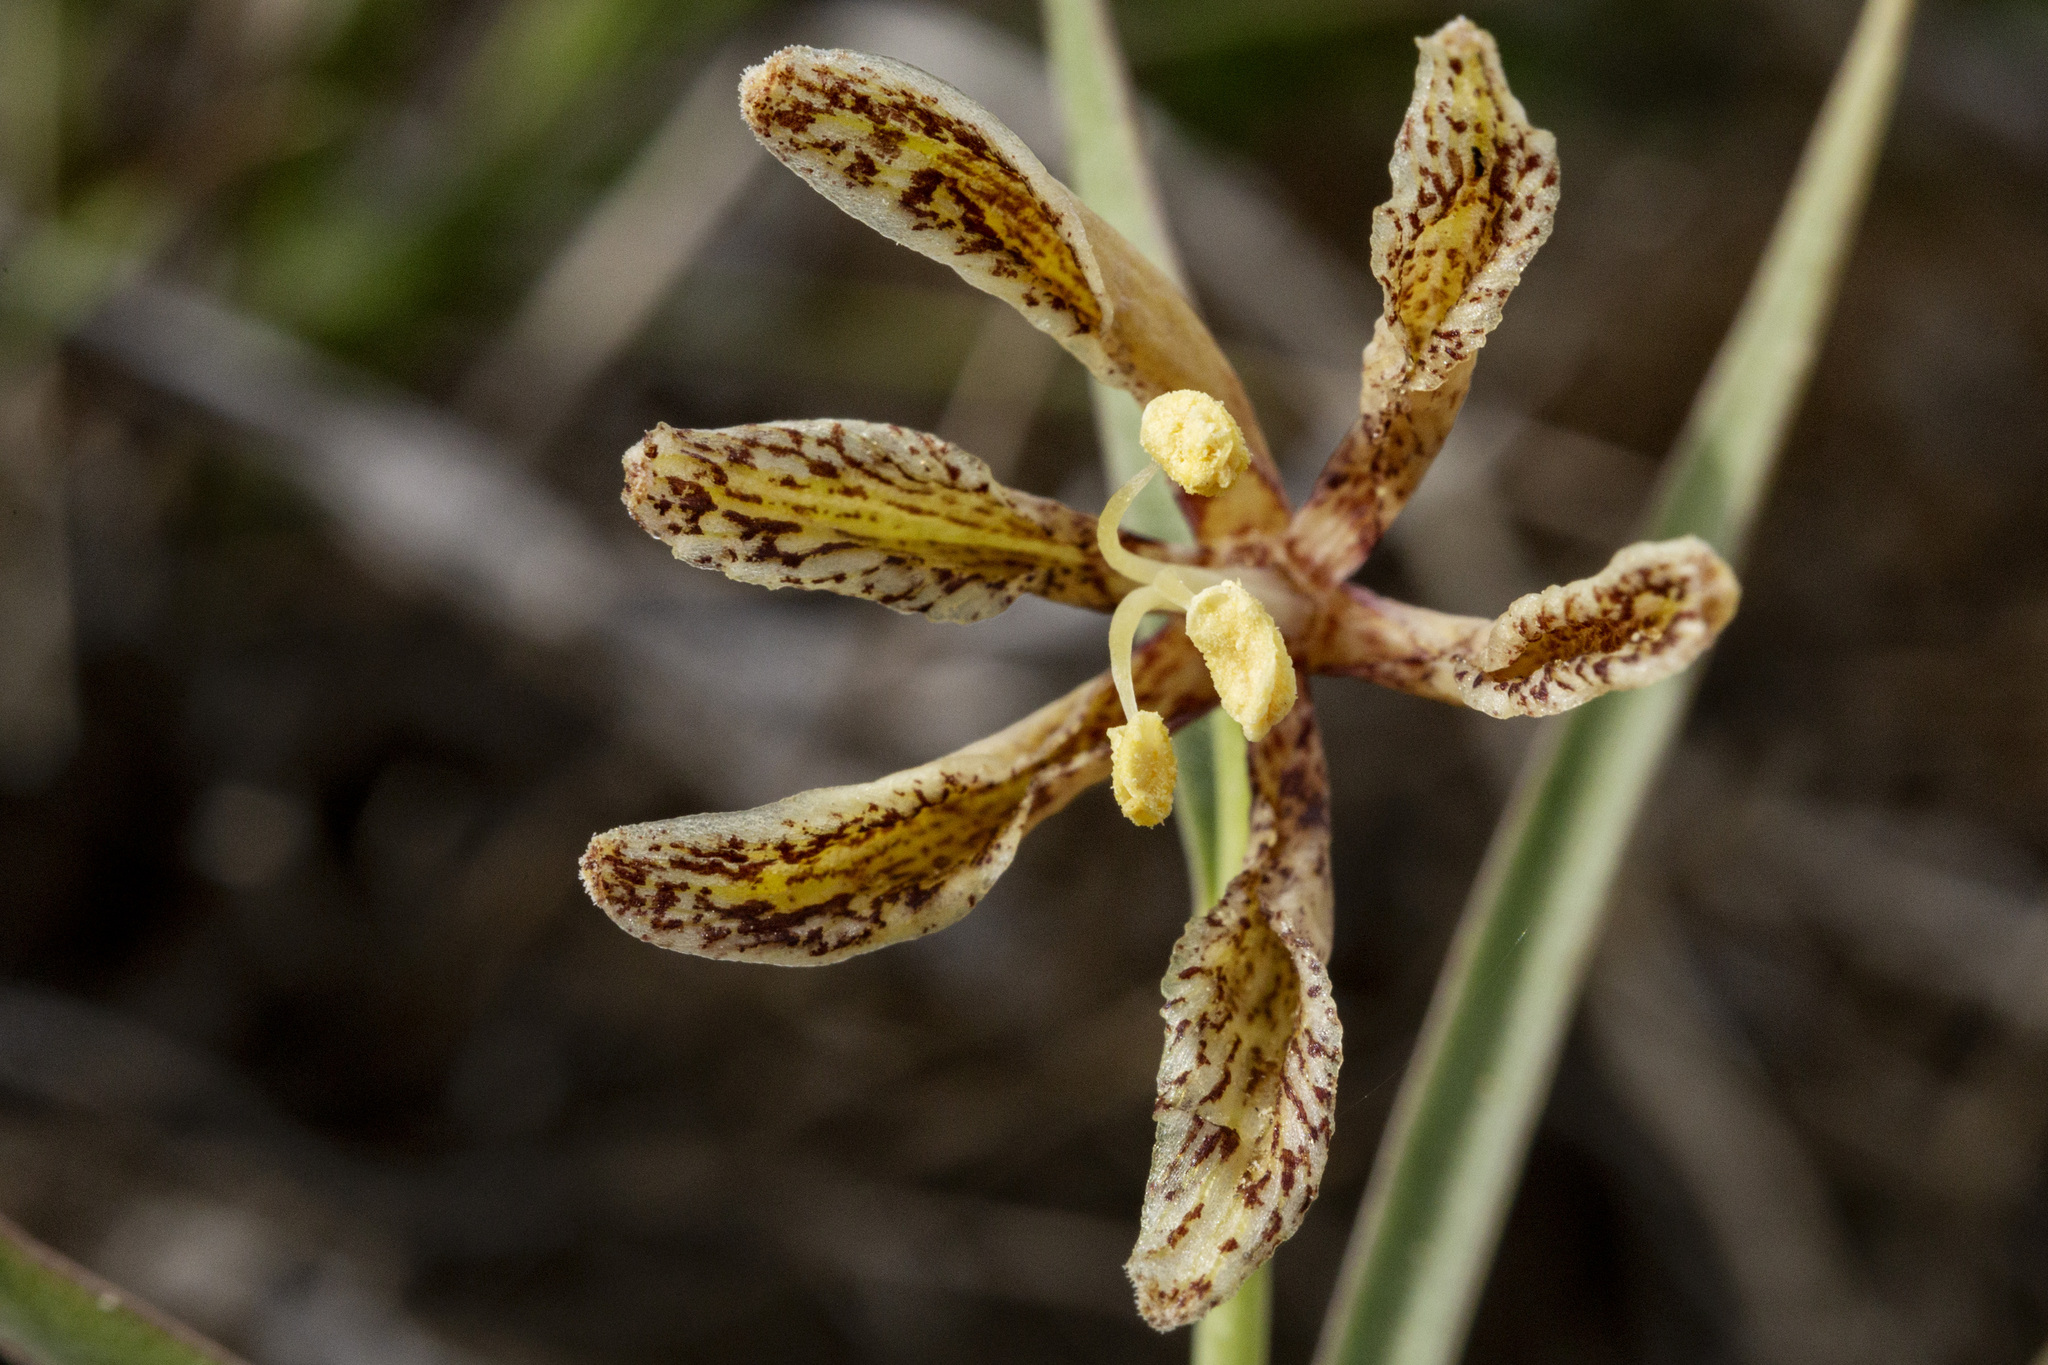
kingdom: Plantae
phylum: Tracheophyta
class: Liliopsida
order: Liliales
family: Liliaceae
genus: Fritillaria
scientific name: Fritillaria atropurpurea
